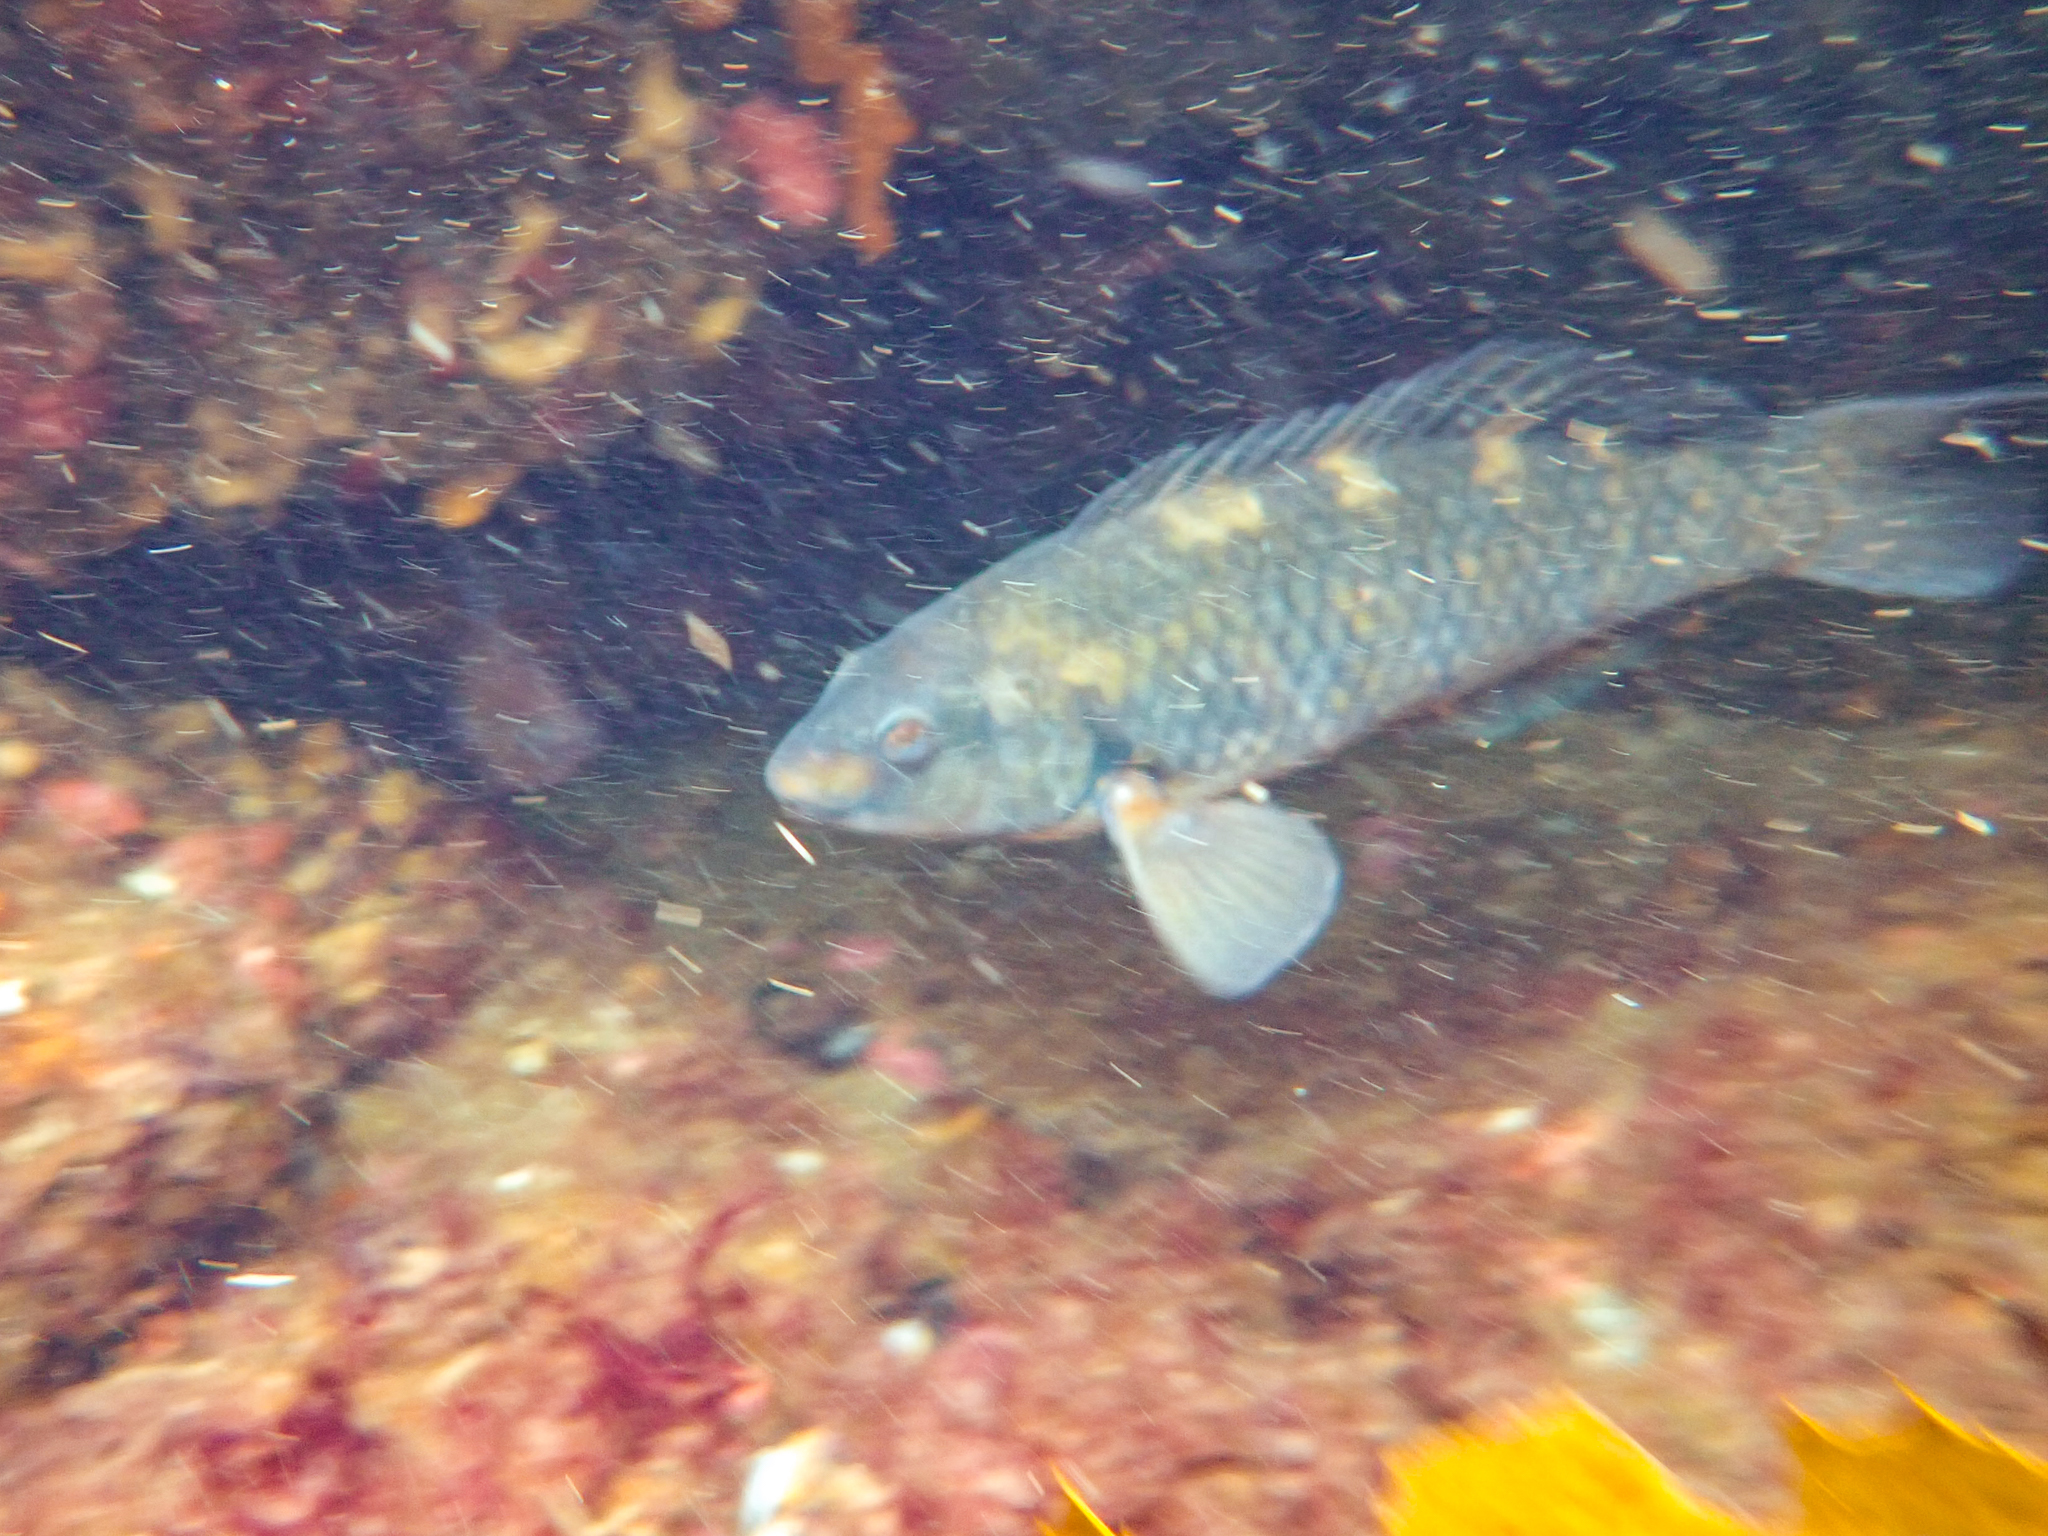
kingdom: Animalia
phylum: Chordata
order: Perciformes
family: Labridae
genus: Notolabrus
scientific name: Notolabrus fucicola
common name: Banded parrotfish
